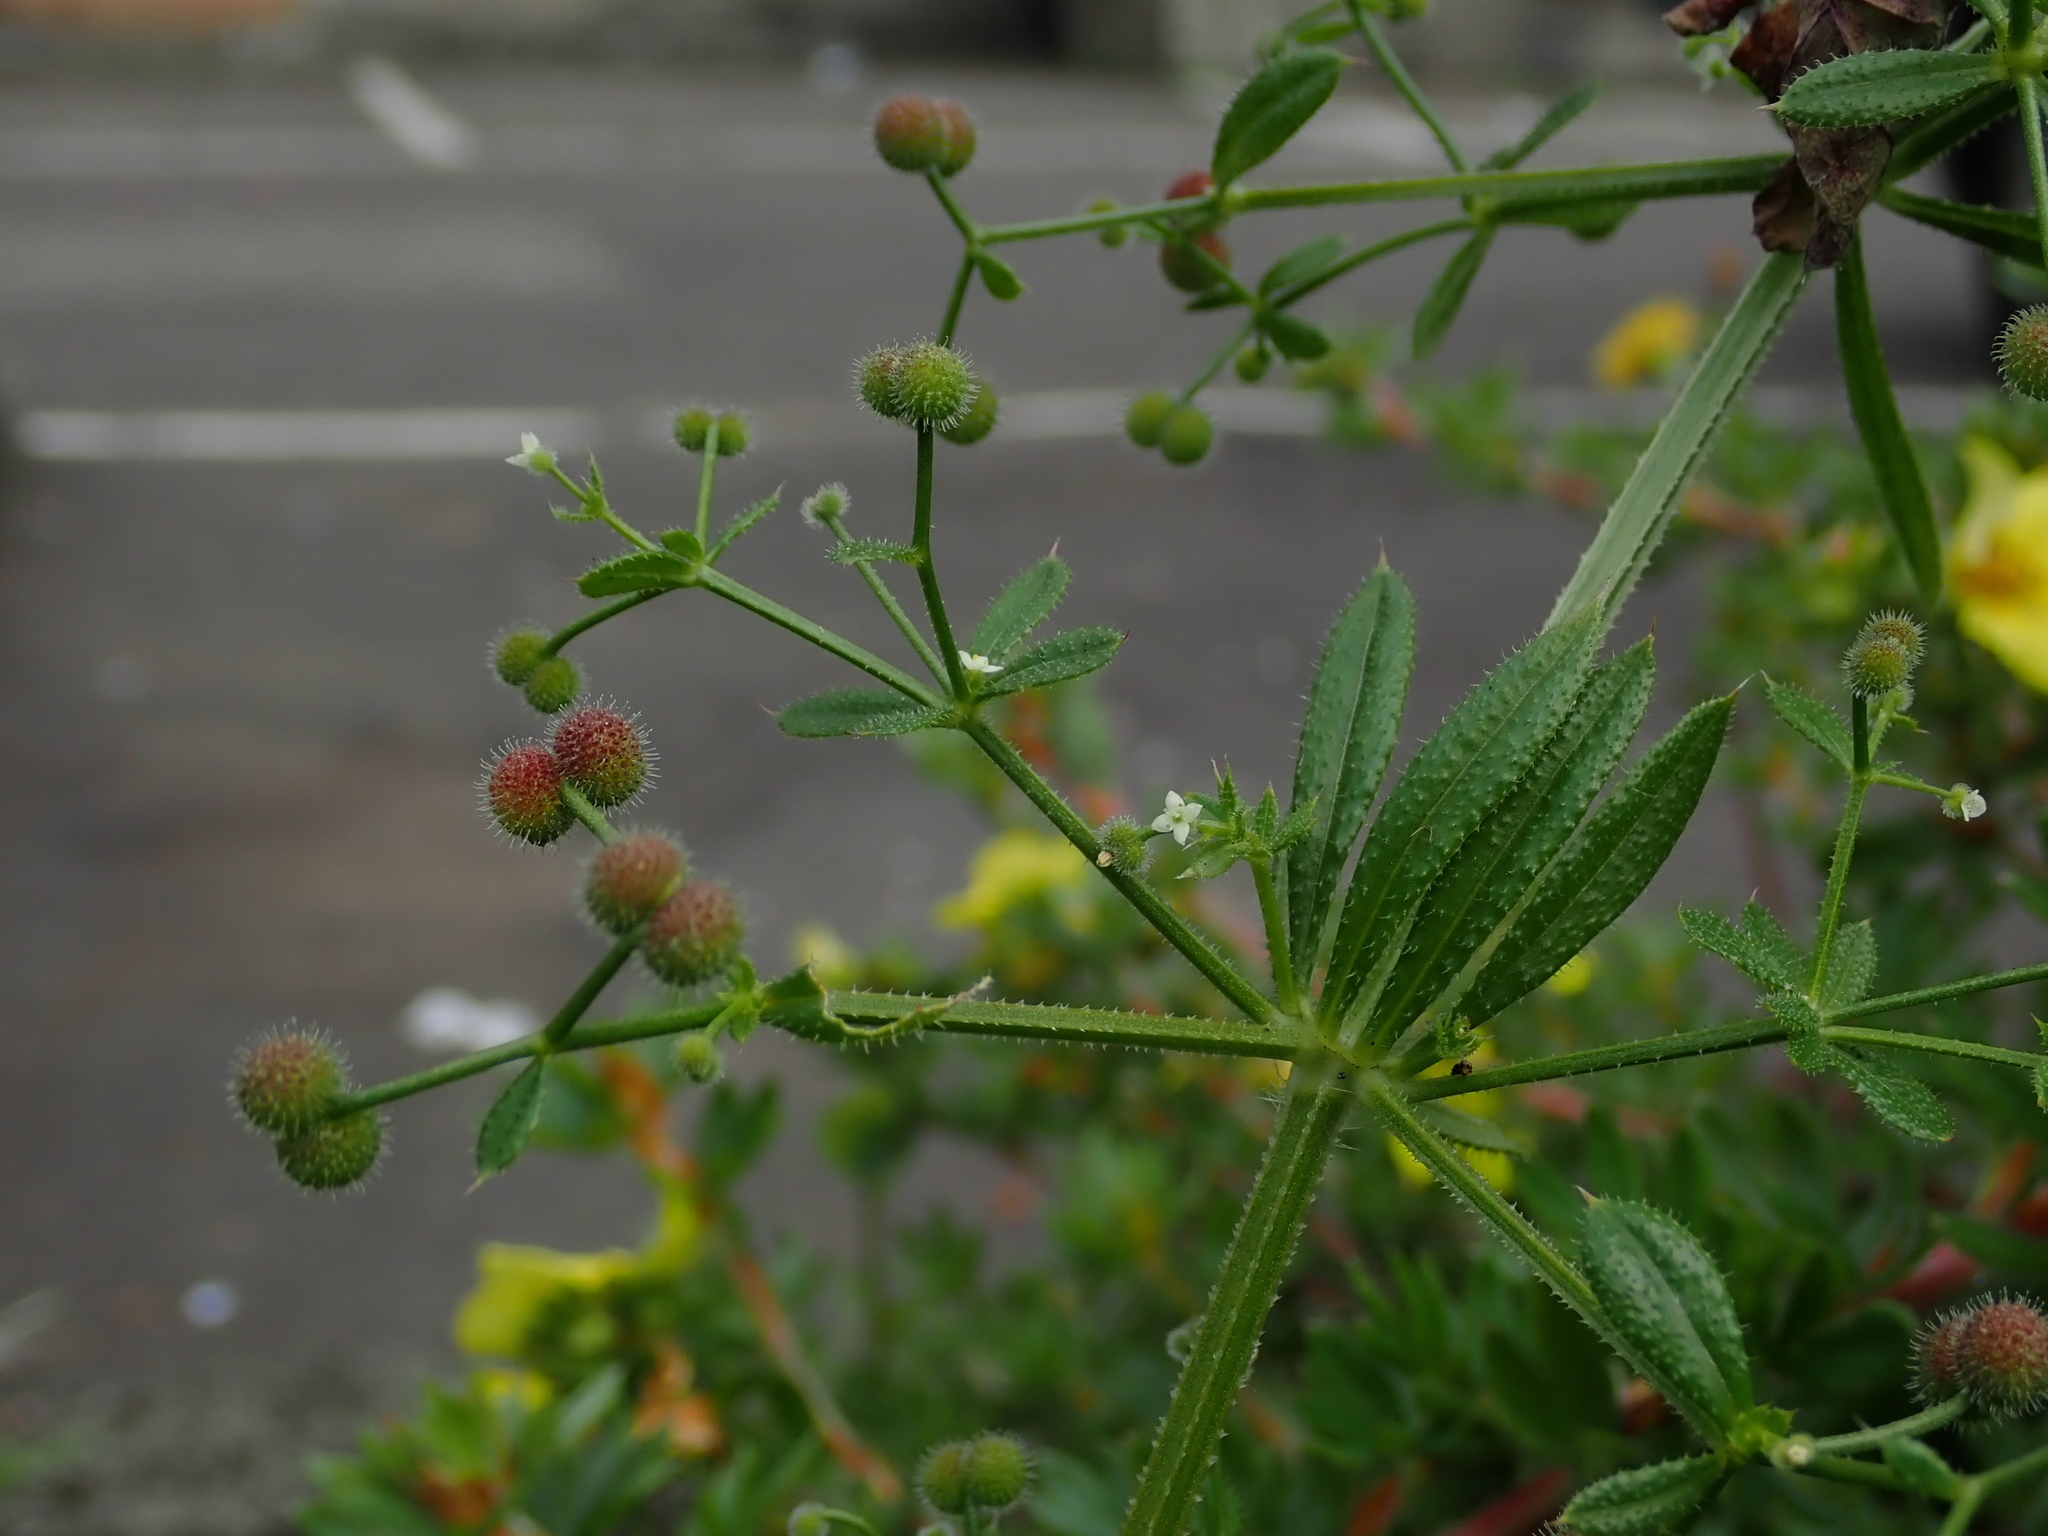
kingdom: Plantae
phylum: Tracheophyta
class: Magnoliopsida
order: Gentianales
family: Rubiaceae
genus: Galium
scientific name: Galium aparine
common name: Cleavers
